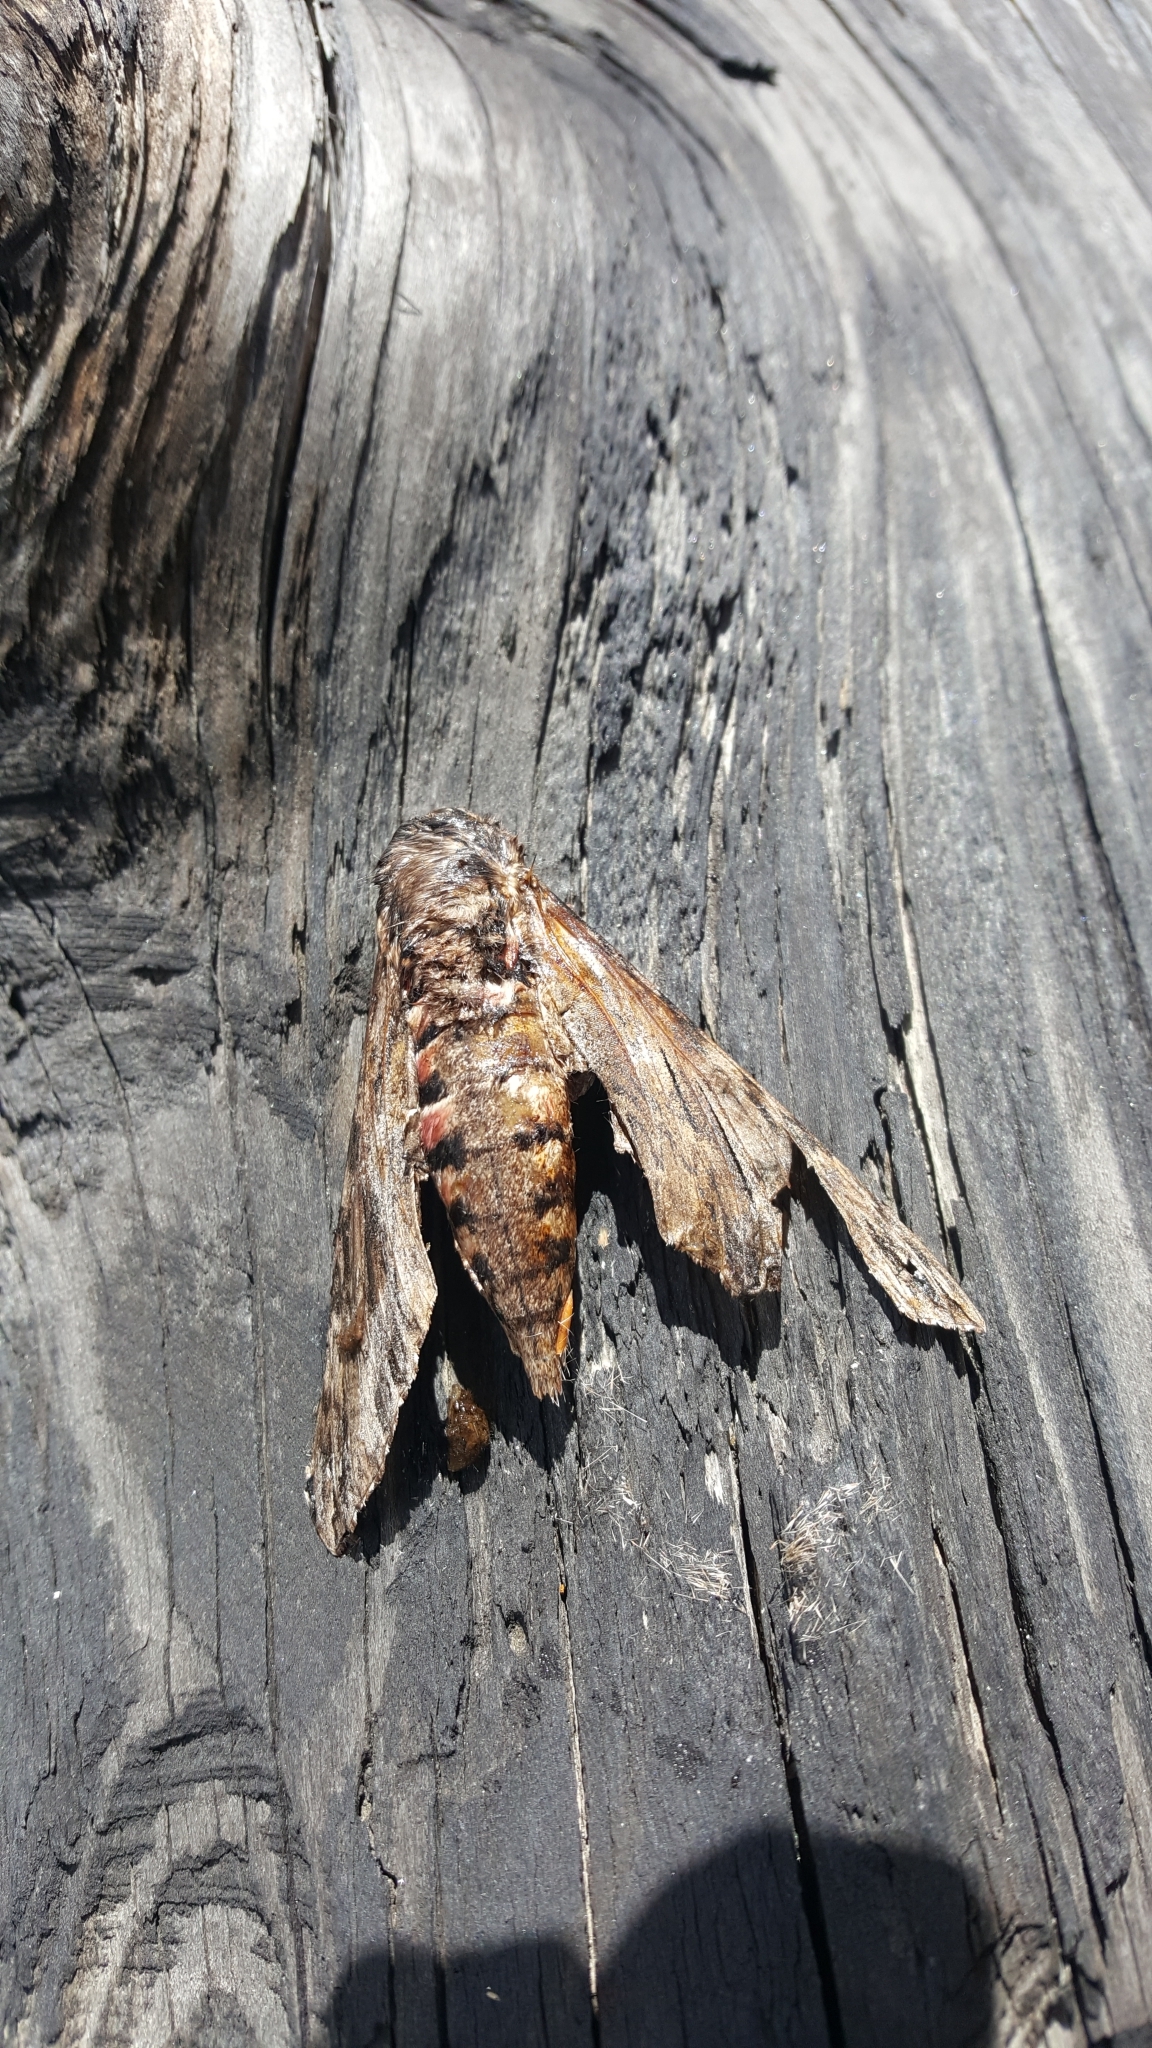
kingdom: Animalia
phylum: Arthropoda
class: Insecta
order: Lepidoptera
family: Sphingidae
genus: Agrius
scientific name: Agrius convolvuli
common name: Convolvulus hawkmoth
